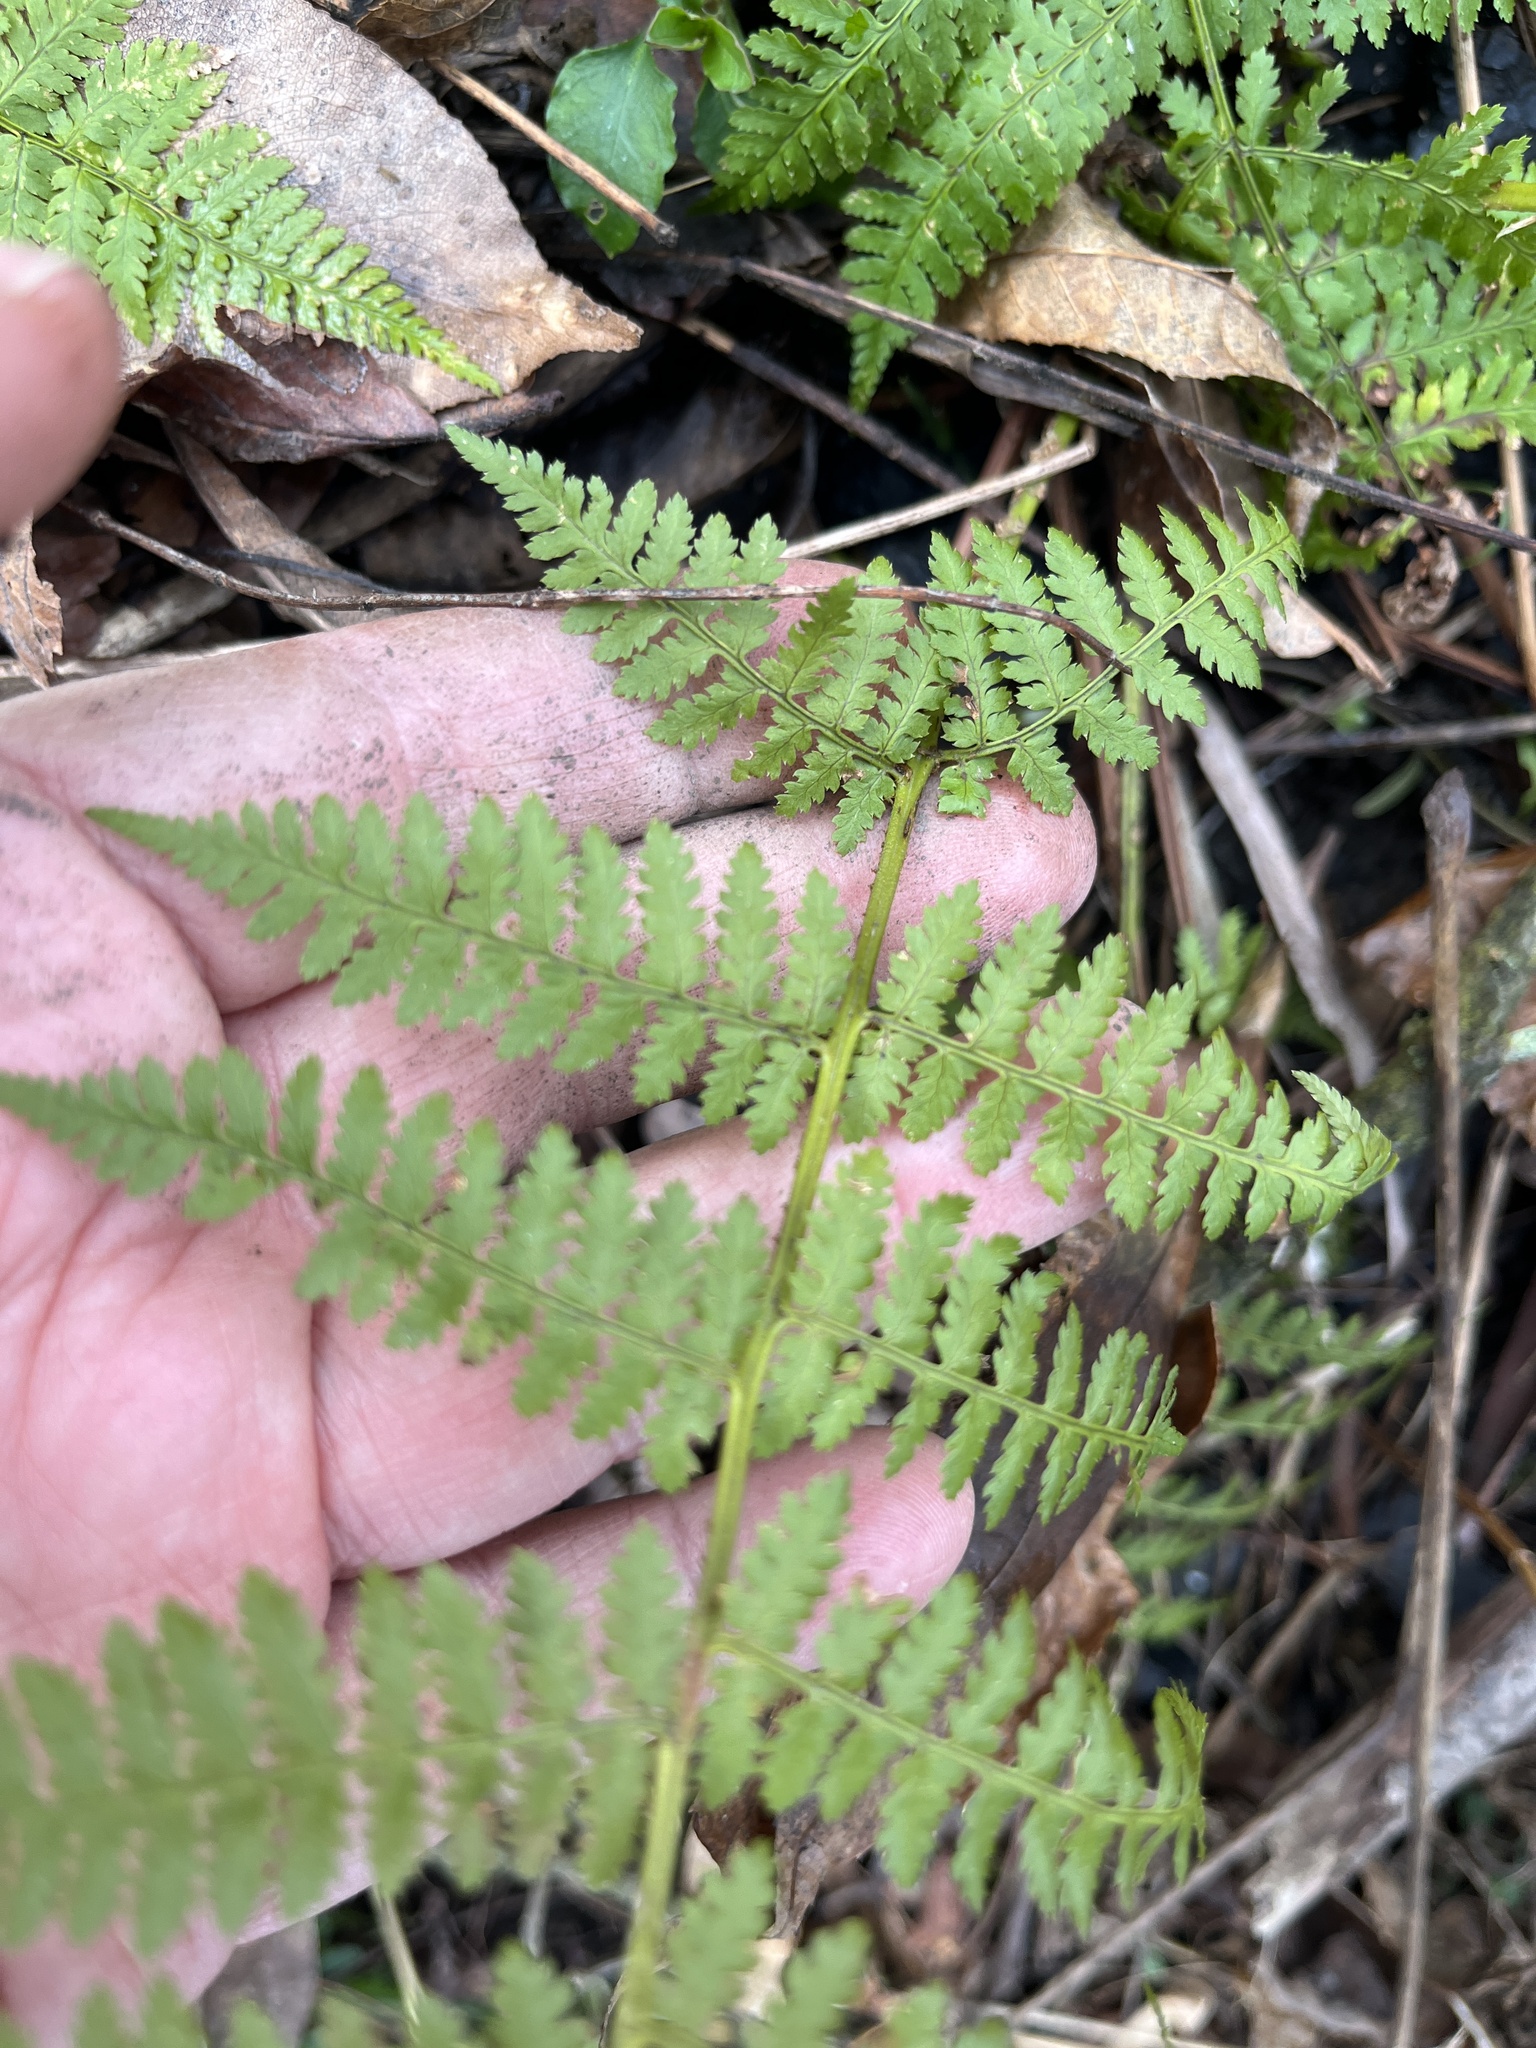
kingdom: Plantae
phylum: Tracheophyta
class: Polypodiopsida
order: Polypodiales
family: Dryopteridaceae
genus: Dryopteris
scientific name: Dryopteris intermedia
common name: Evergreen wood fern
